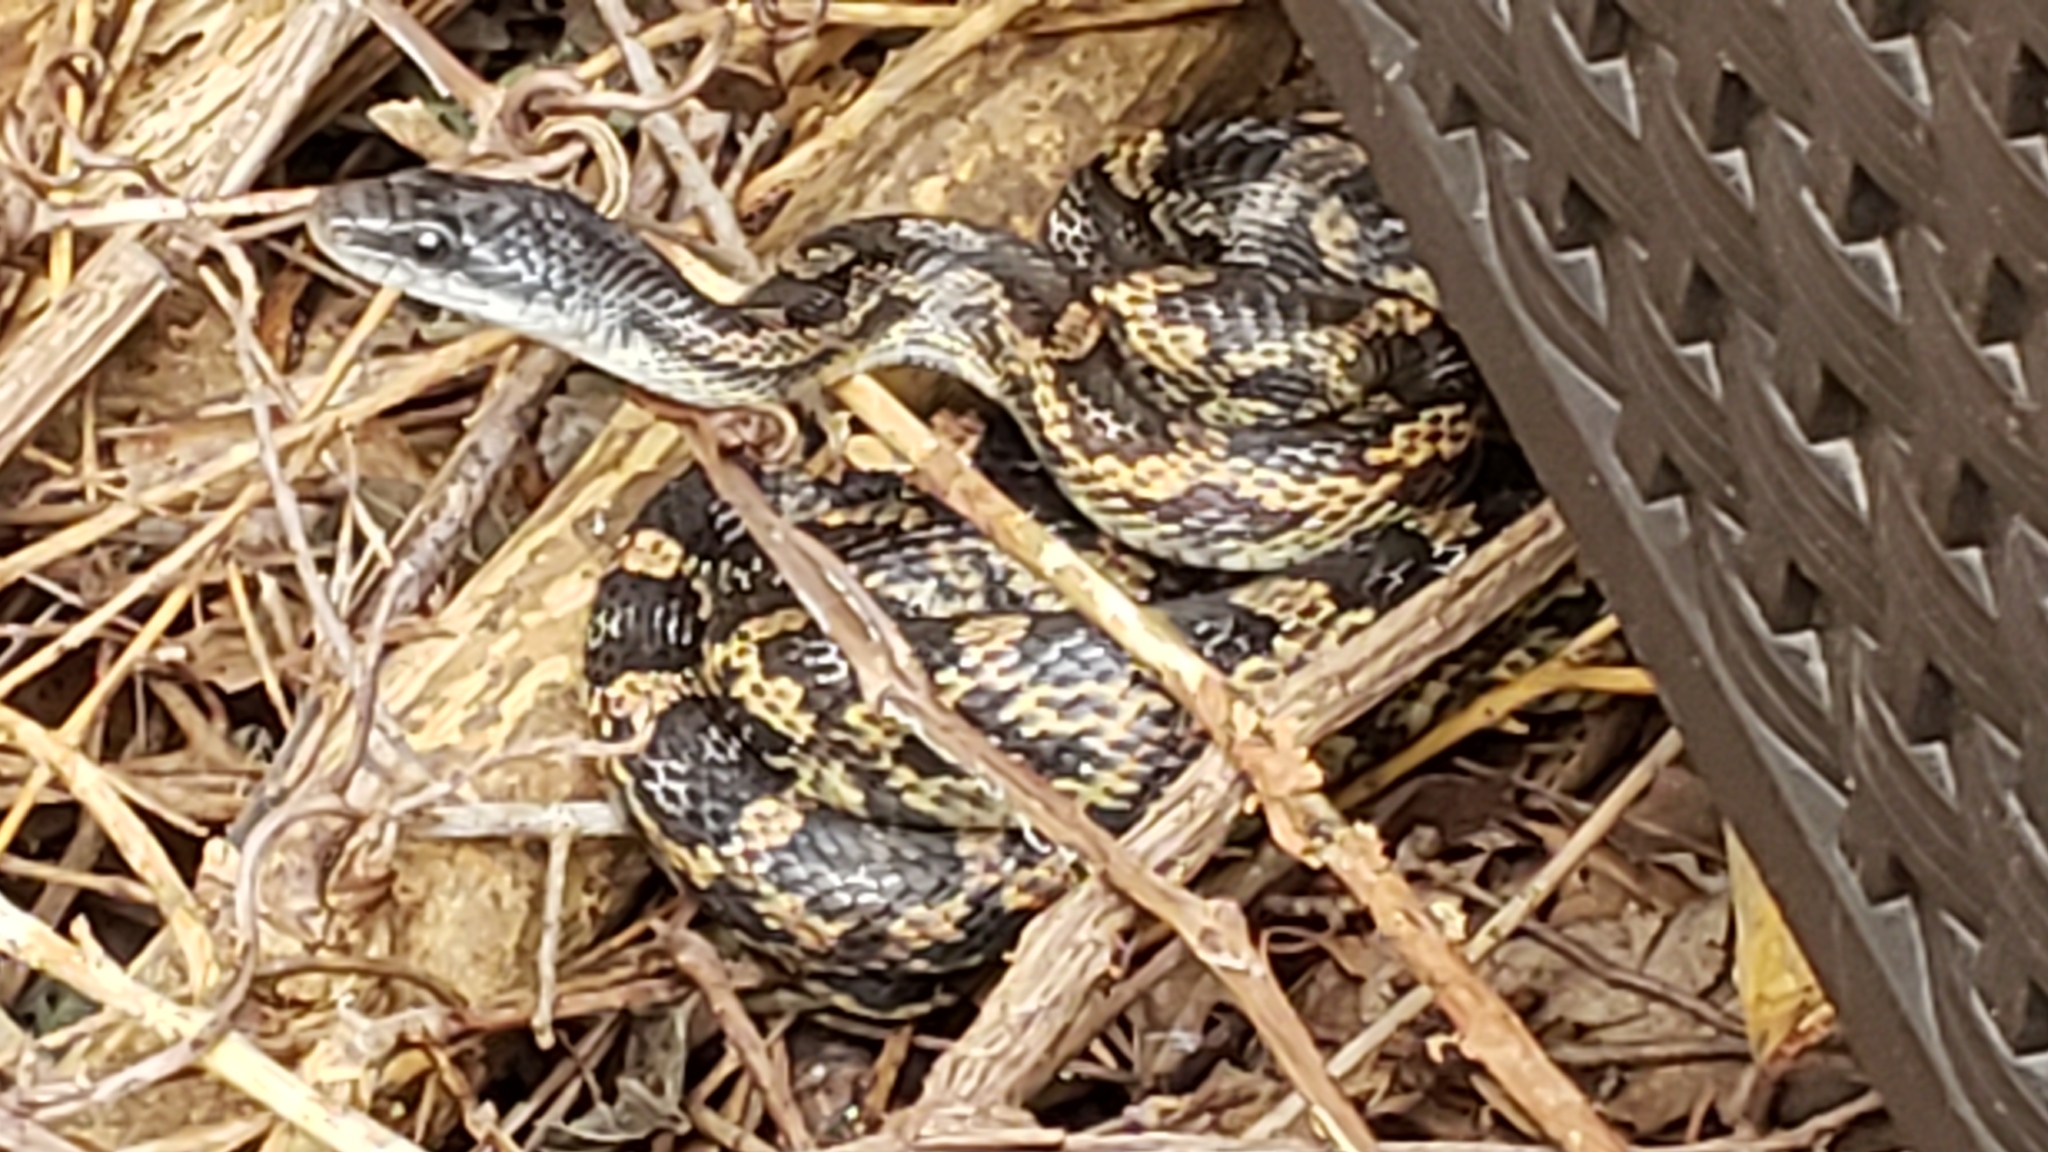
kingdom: Animalia
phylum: Chordata
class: Squamata
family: Colubridae
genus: Pantherophis
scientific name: Pantherophis obsoletus
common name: Black rat snake
